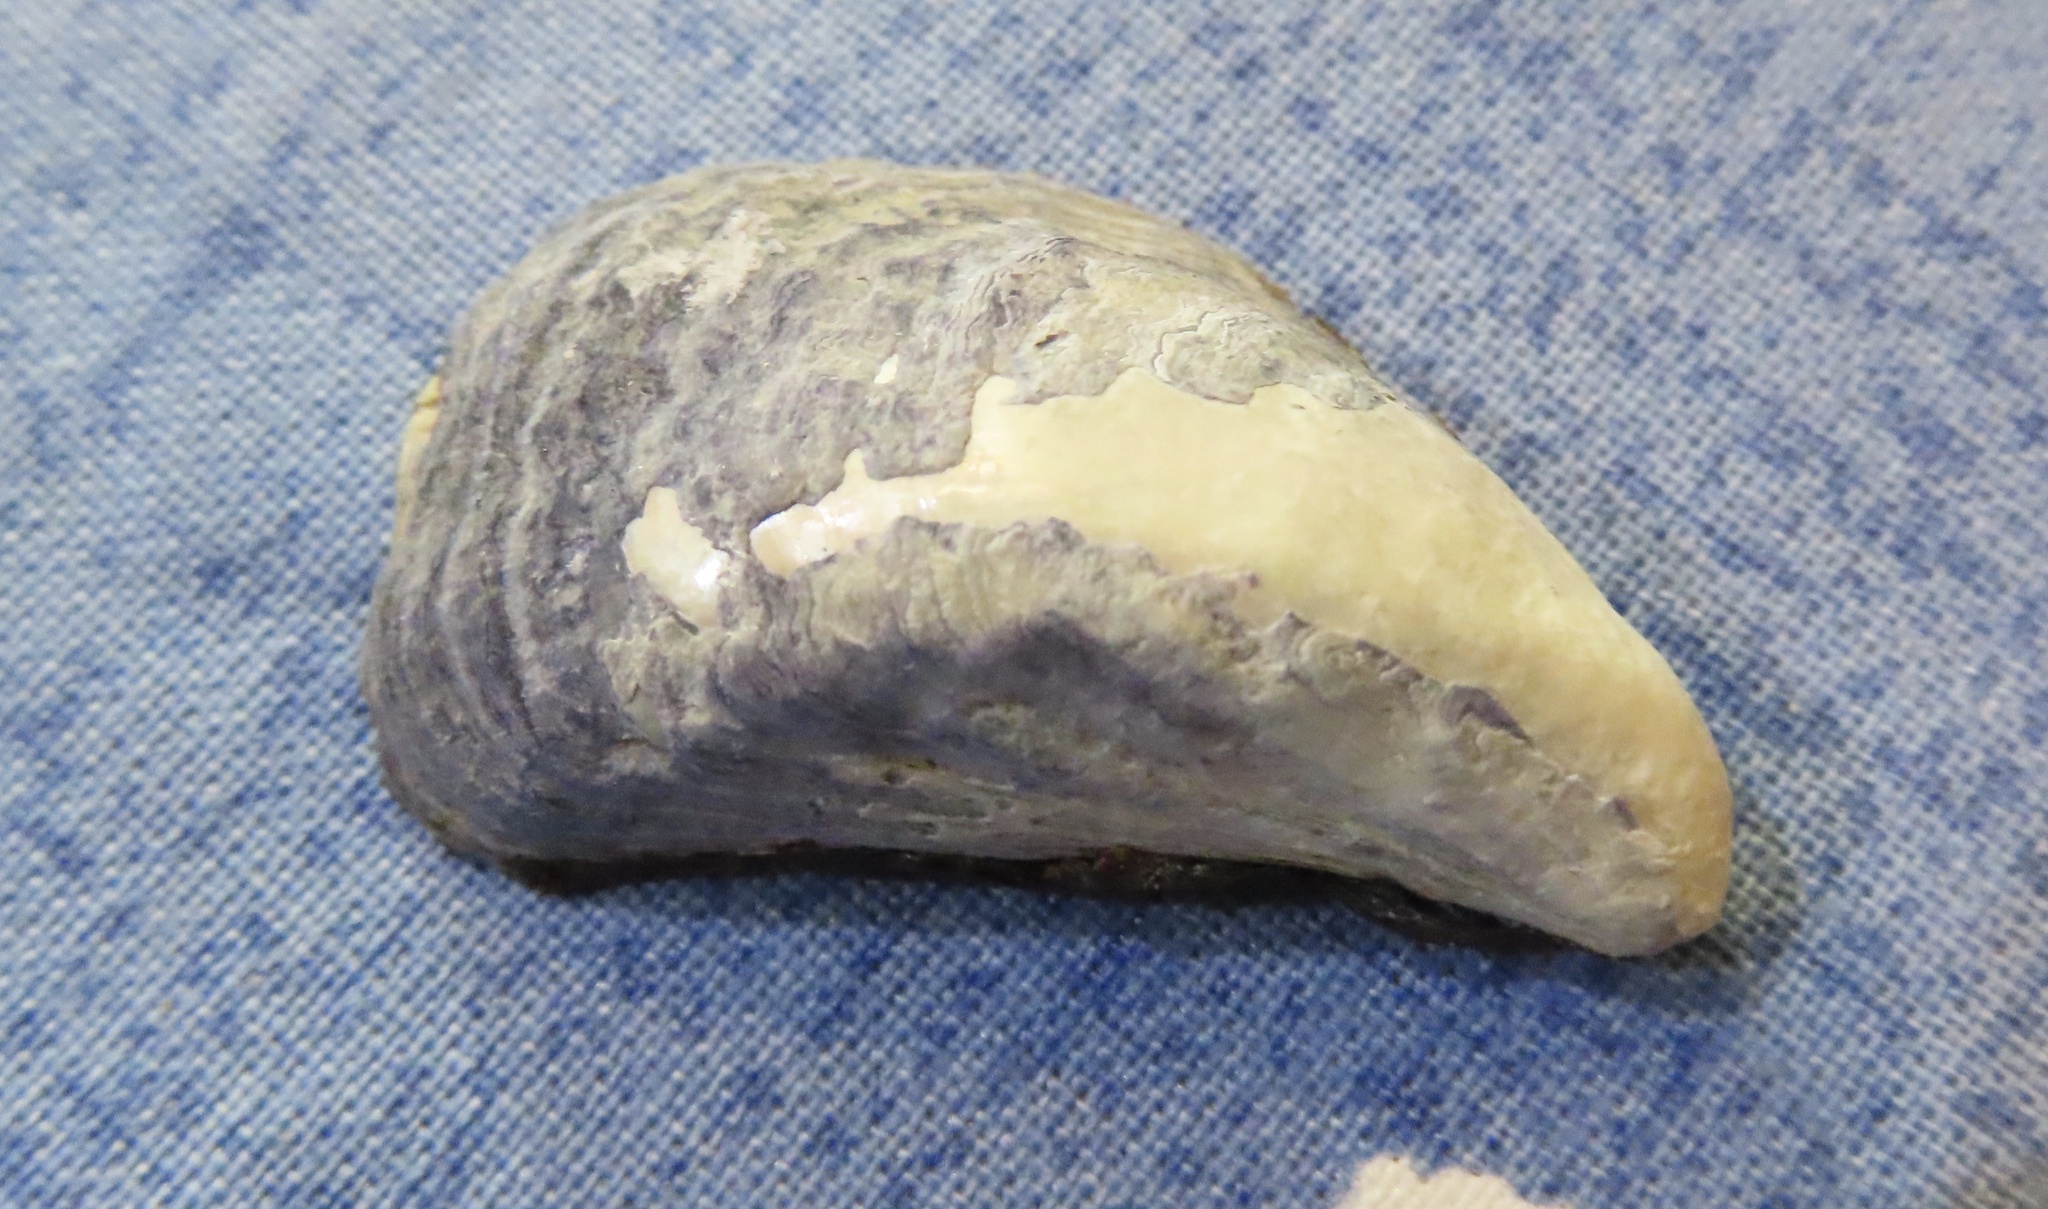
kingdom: Animalia
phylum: Mollusca
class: Bivalvia
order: Mytilida
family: Mytilidae
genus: Mytilus
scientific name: Mytilus edulis
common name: Blue mussel
